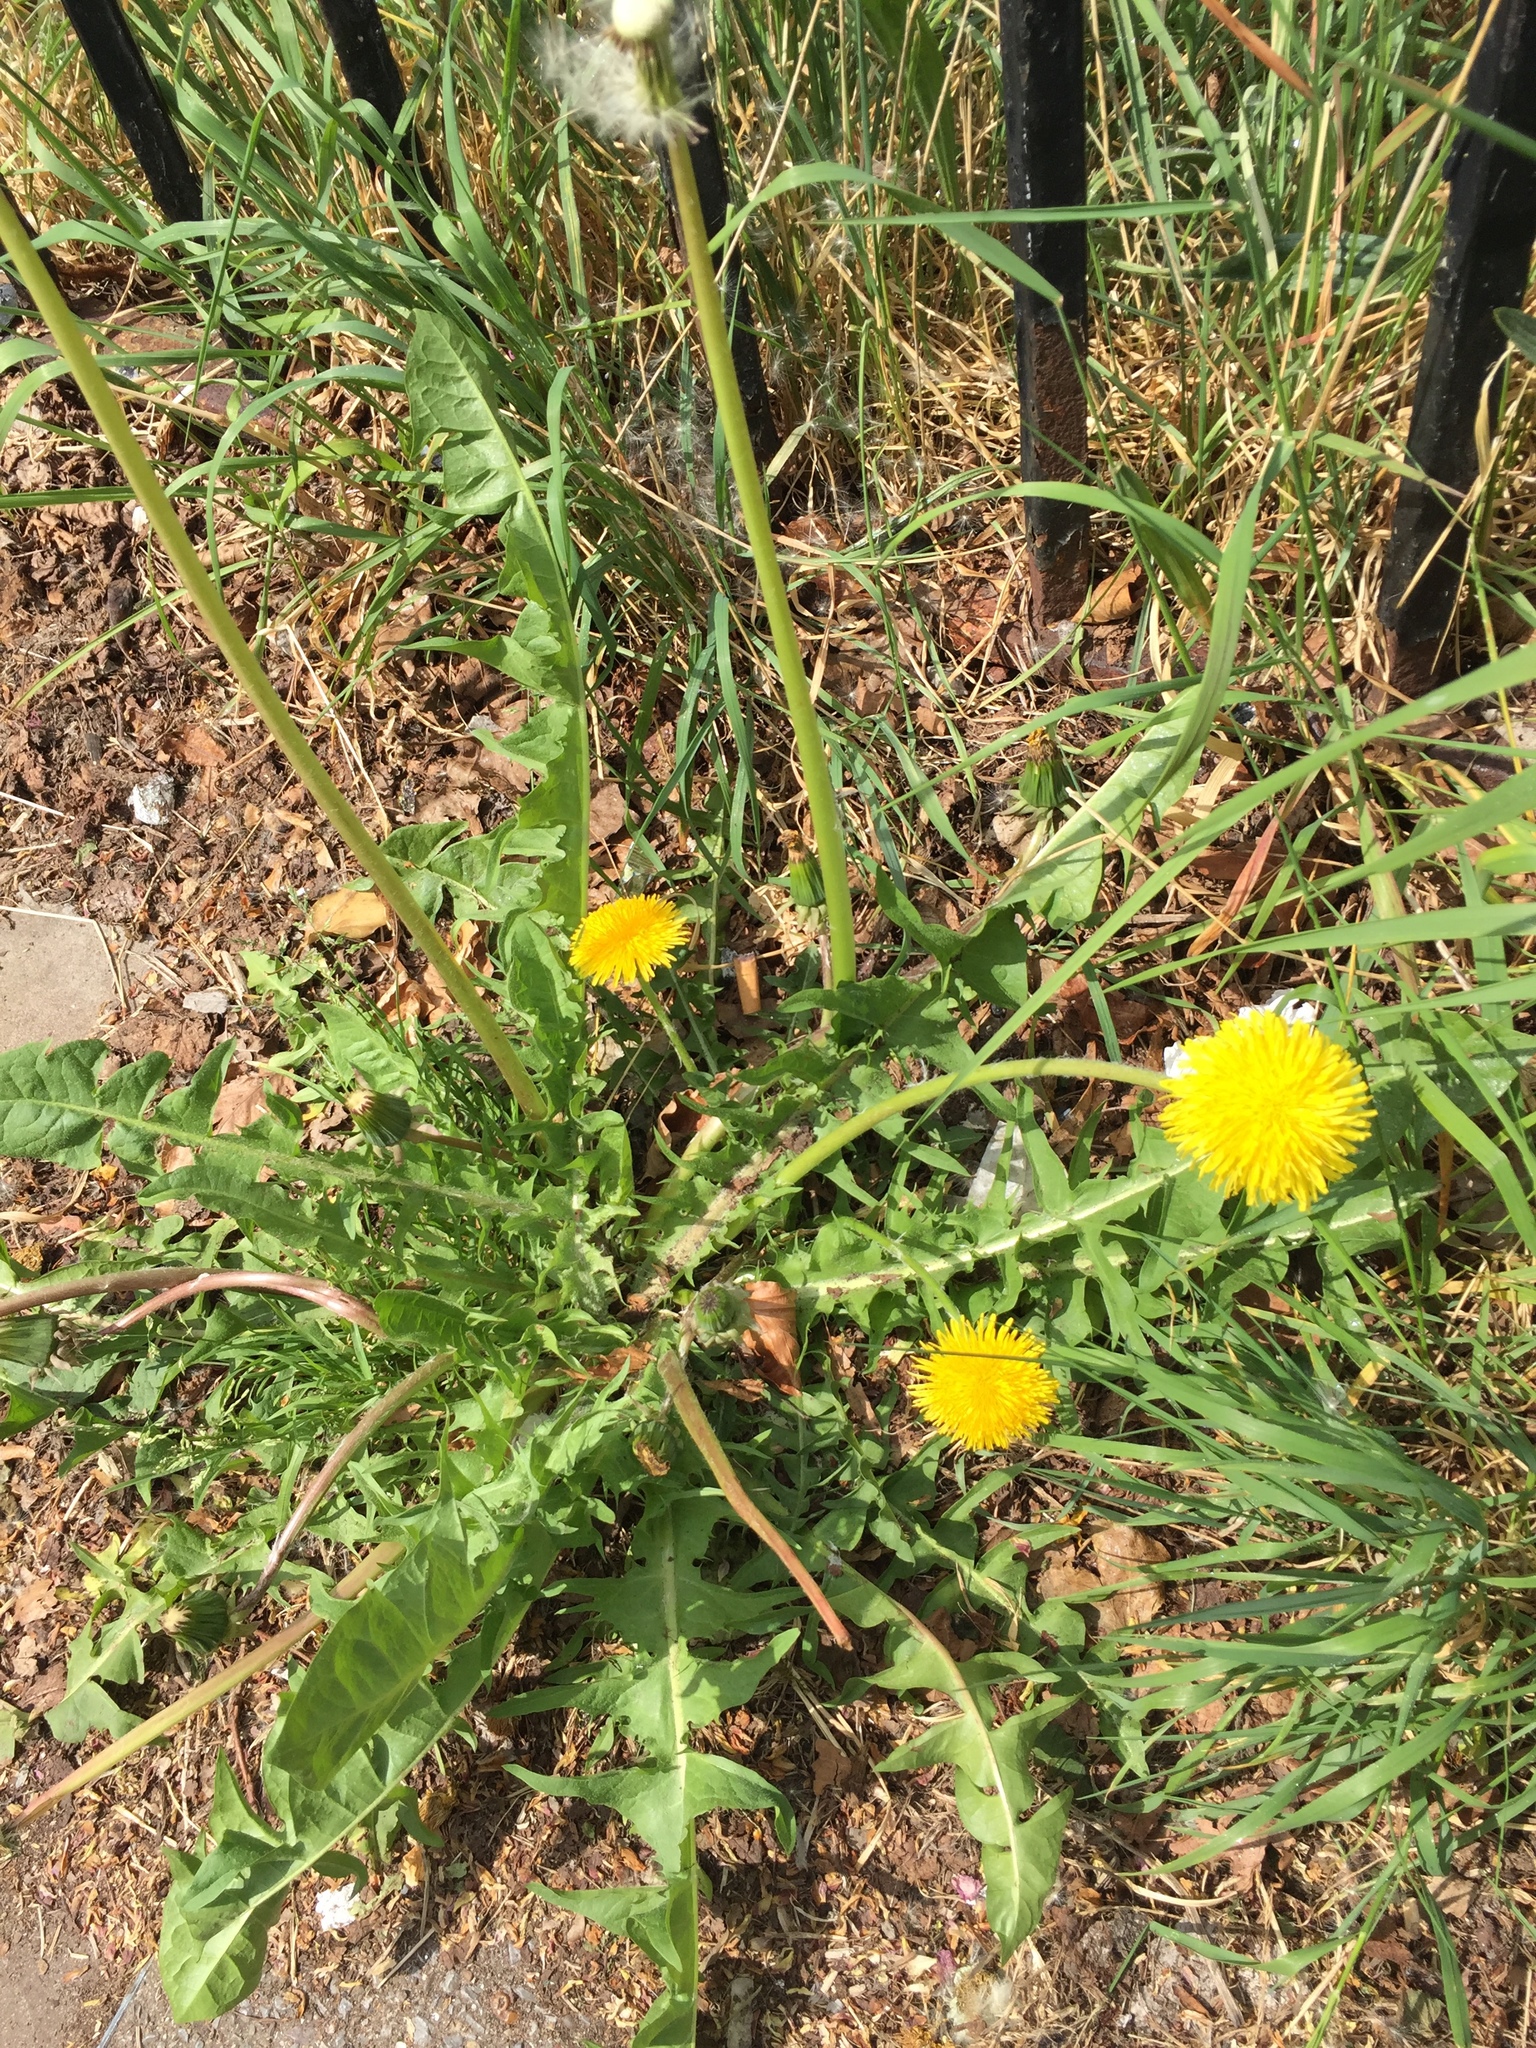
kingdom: Plantae
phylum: Tracheophyta
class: Magnoliopsida
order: Asterales
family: Asteraceae
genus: Taraxacum
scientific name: Taraxacum officinale
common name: Common dandelion
